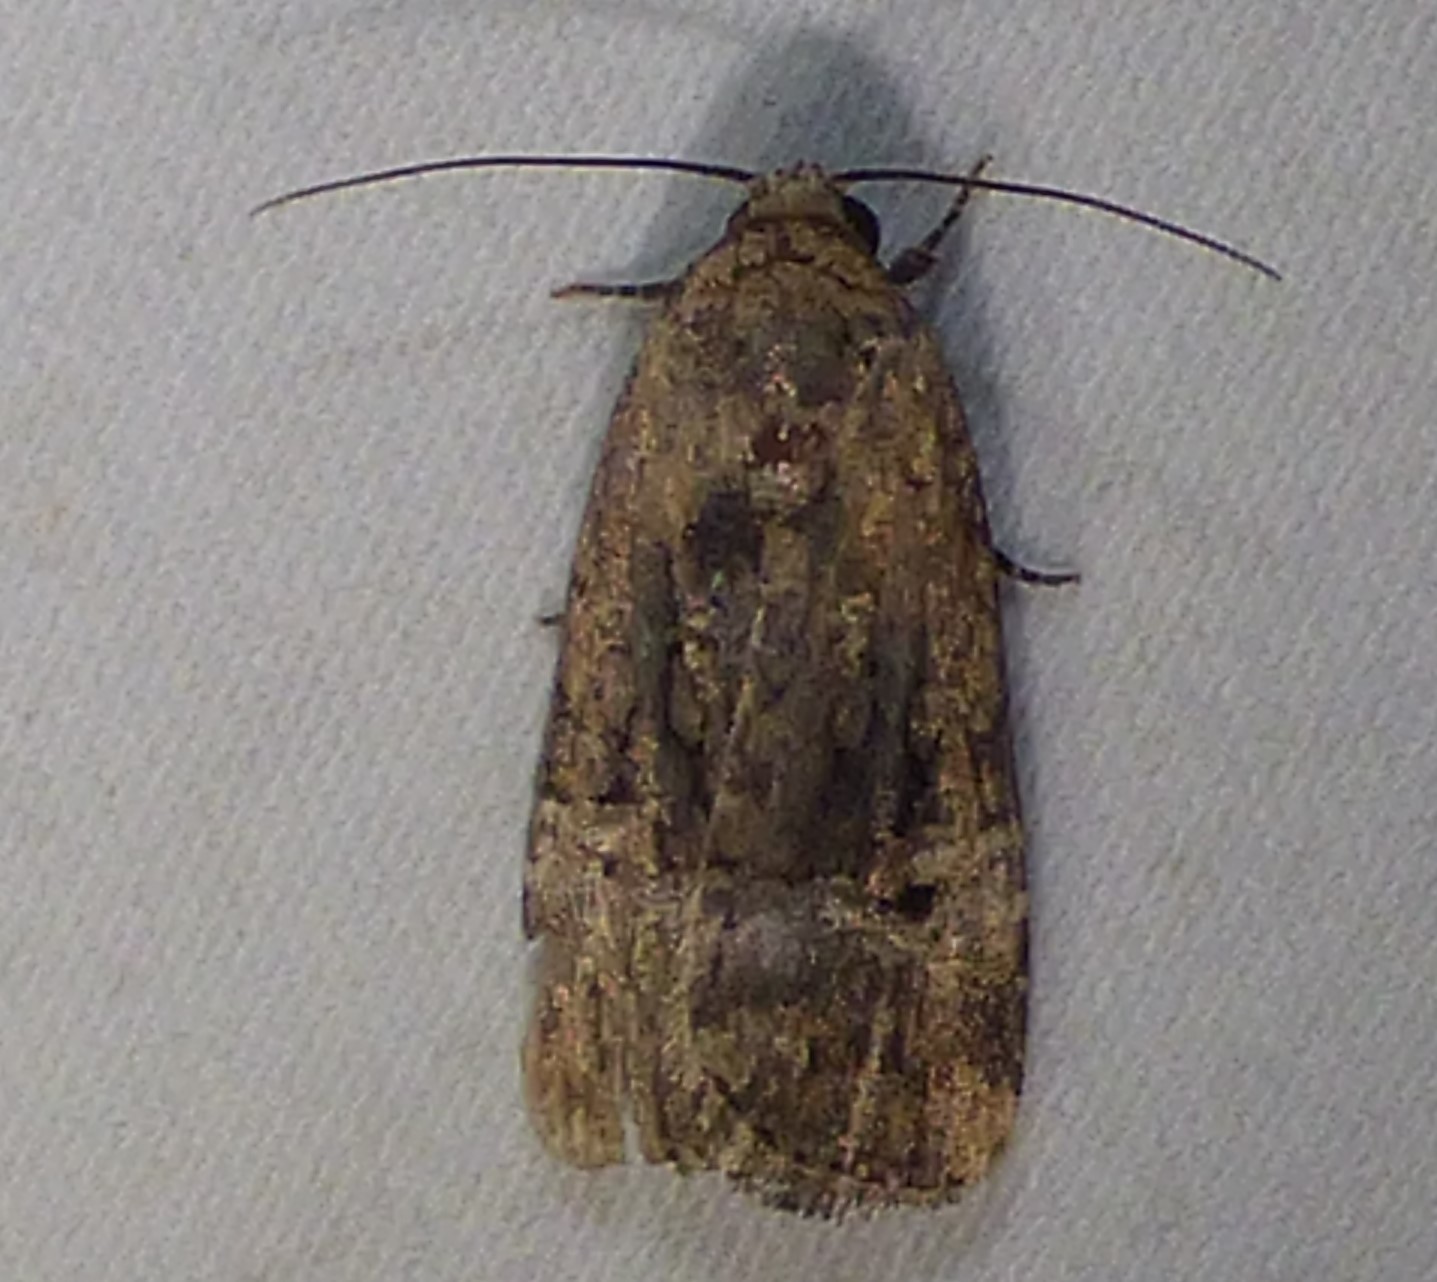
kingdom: Animalia
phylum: Arthropoda
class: Insecta
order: Lepidoptera
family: Noctuidae
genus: Elaphria
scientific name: Elaphria chalcedonia
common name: Chalcedony midget
